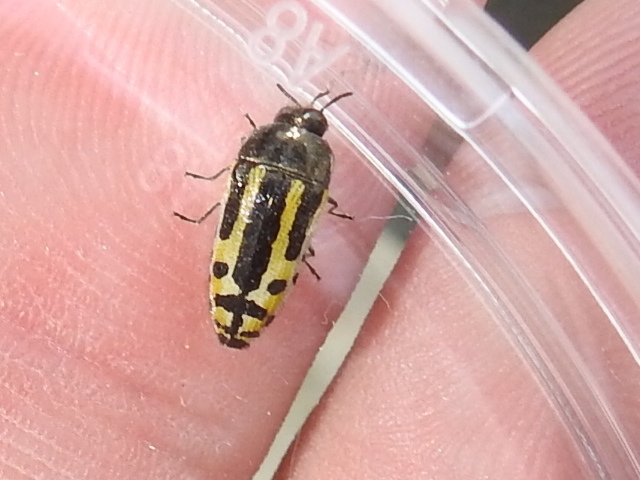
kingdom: Animalia
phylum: Arthropoda
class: Insecta
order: Coleoptera
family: Buprestidae
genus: Acmaeodera
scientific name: Acmaeodera scalaris
